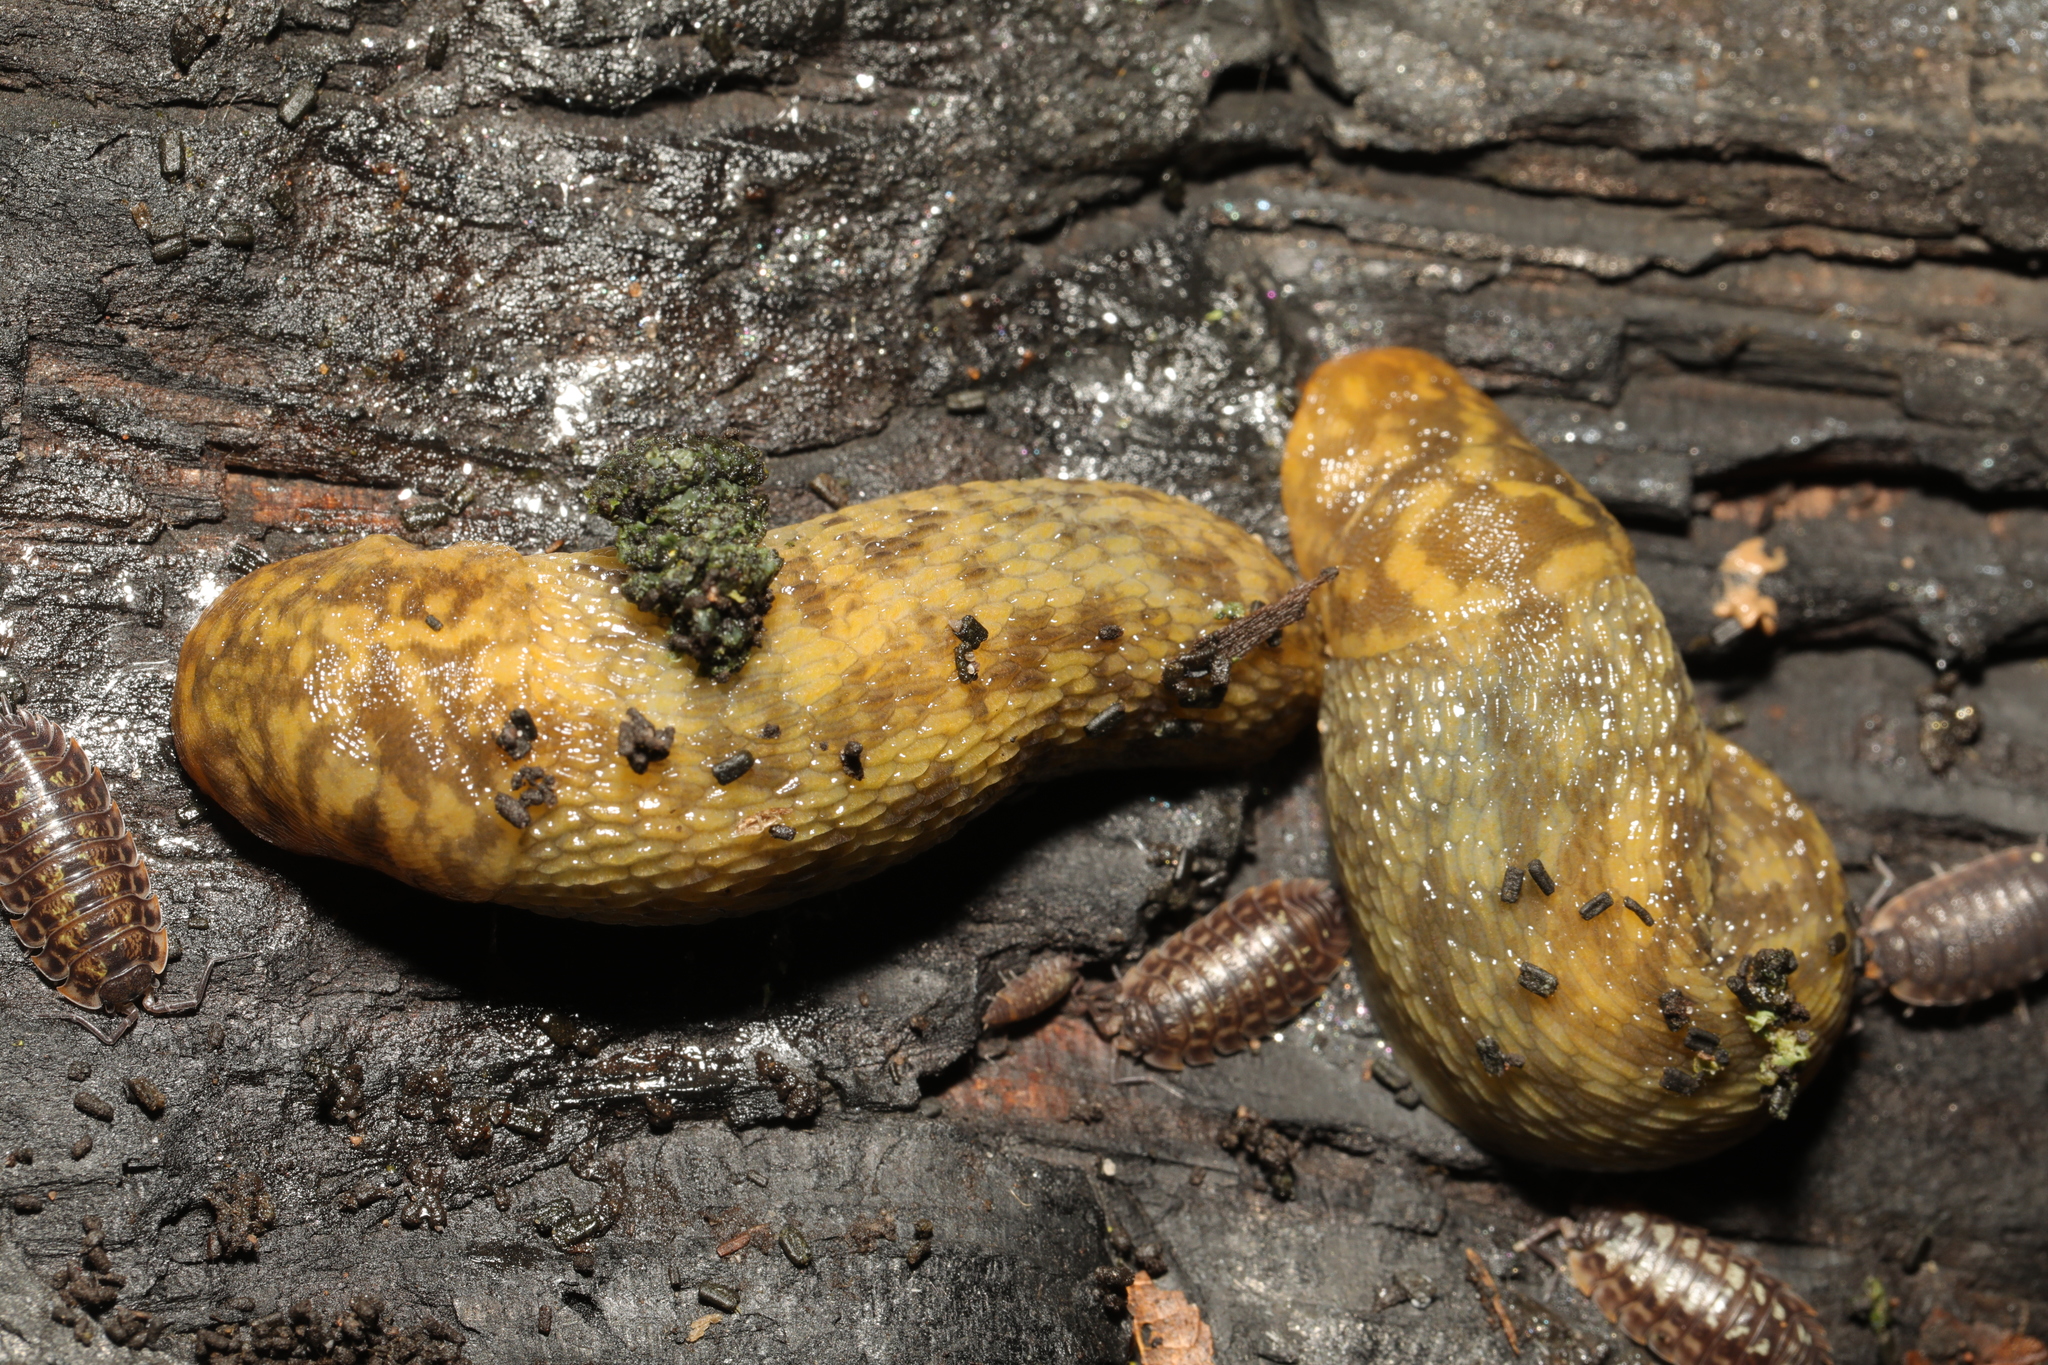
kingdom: Animalia
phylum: Mollusca
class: Gastropoda
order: Stylommatophora
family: Limacidae
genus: Limacus
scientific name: Limacus maculatus
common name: Irish yellow slug
